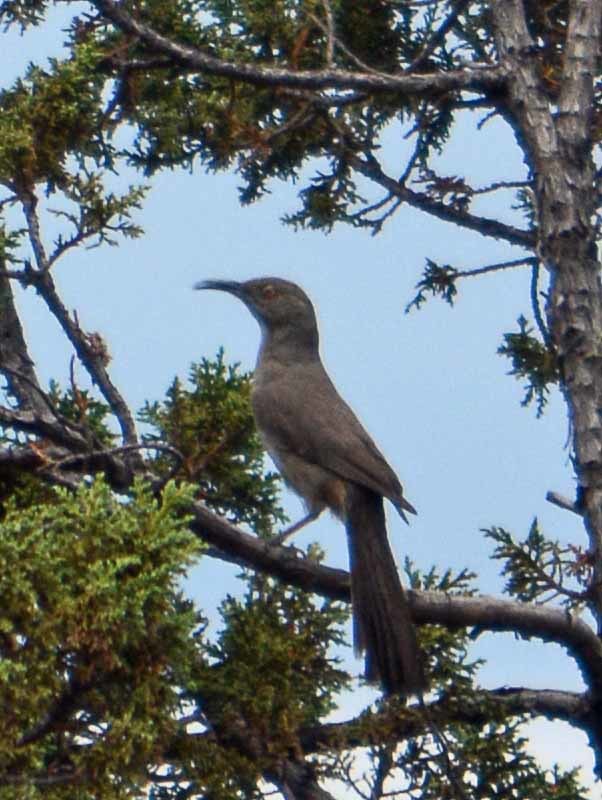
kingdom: Animalia
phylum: Chordata
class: Aves
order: Passeriformes
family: Mimidae
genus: Toxostoma
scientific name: Toxostoma curvirostre
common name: Curve-billed thrasher
